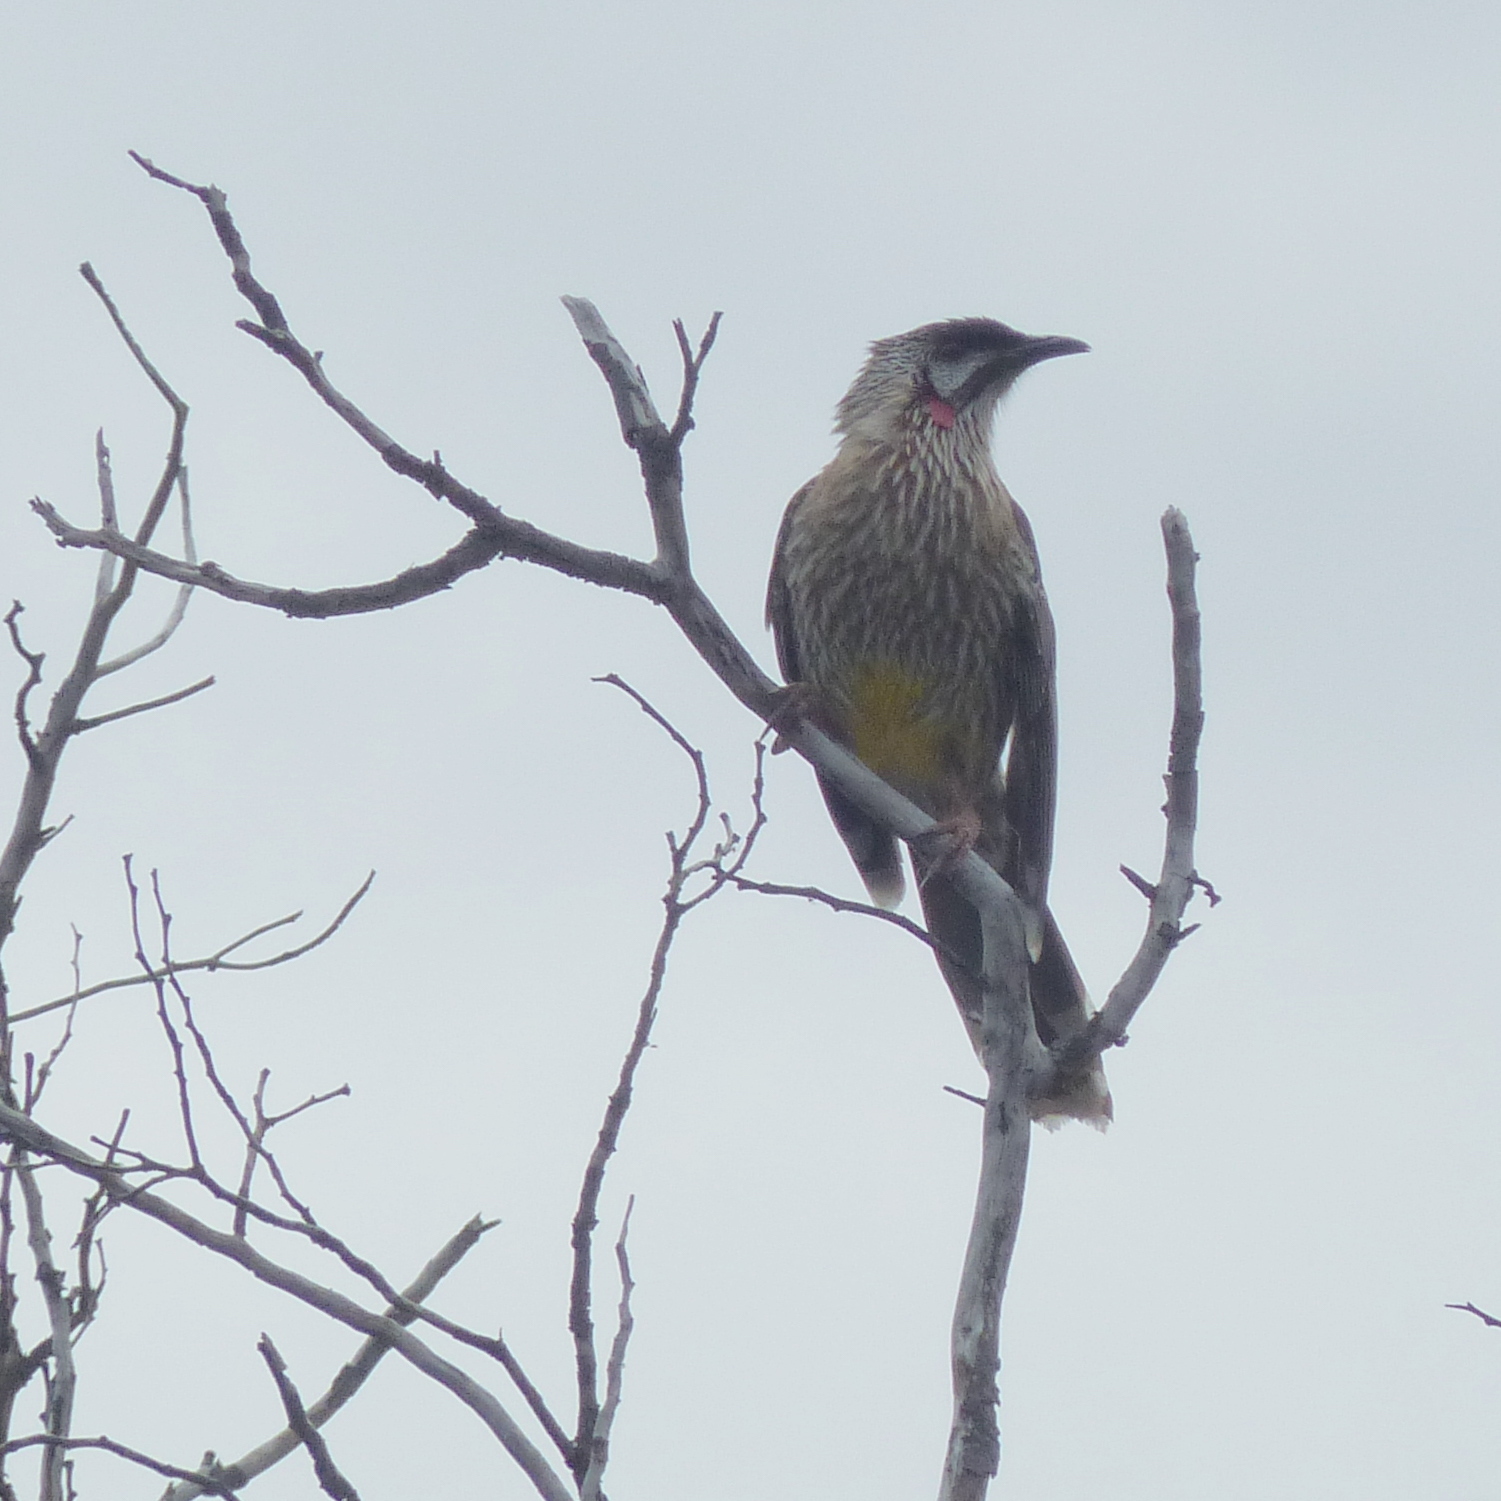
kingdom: Animalia
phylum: Chordata
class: Aves
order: Passeriformes
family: Meliphagidae
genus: Anthochaera
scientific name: Anthochaera carunculata
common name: Red wattlebird
